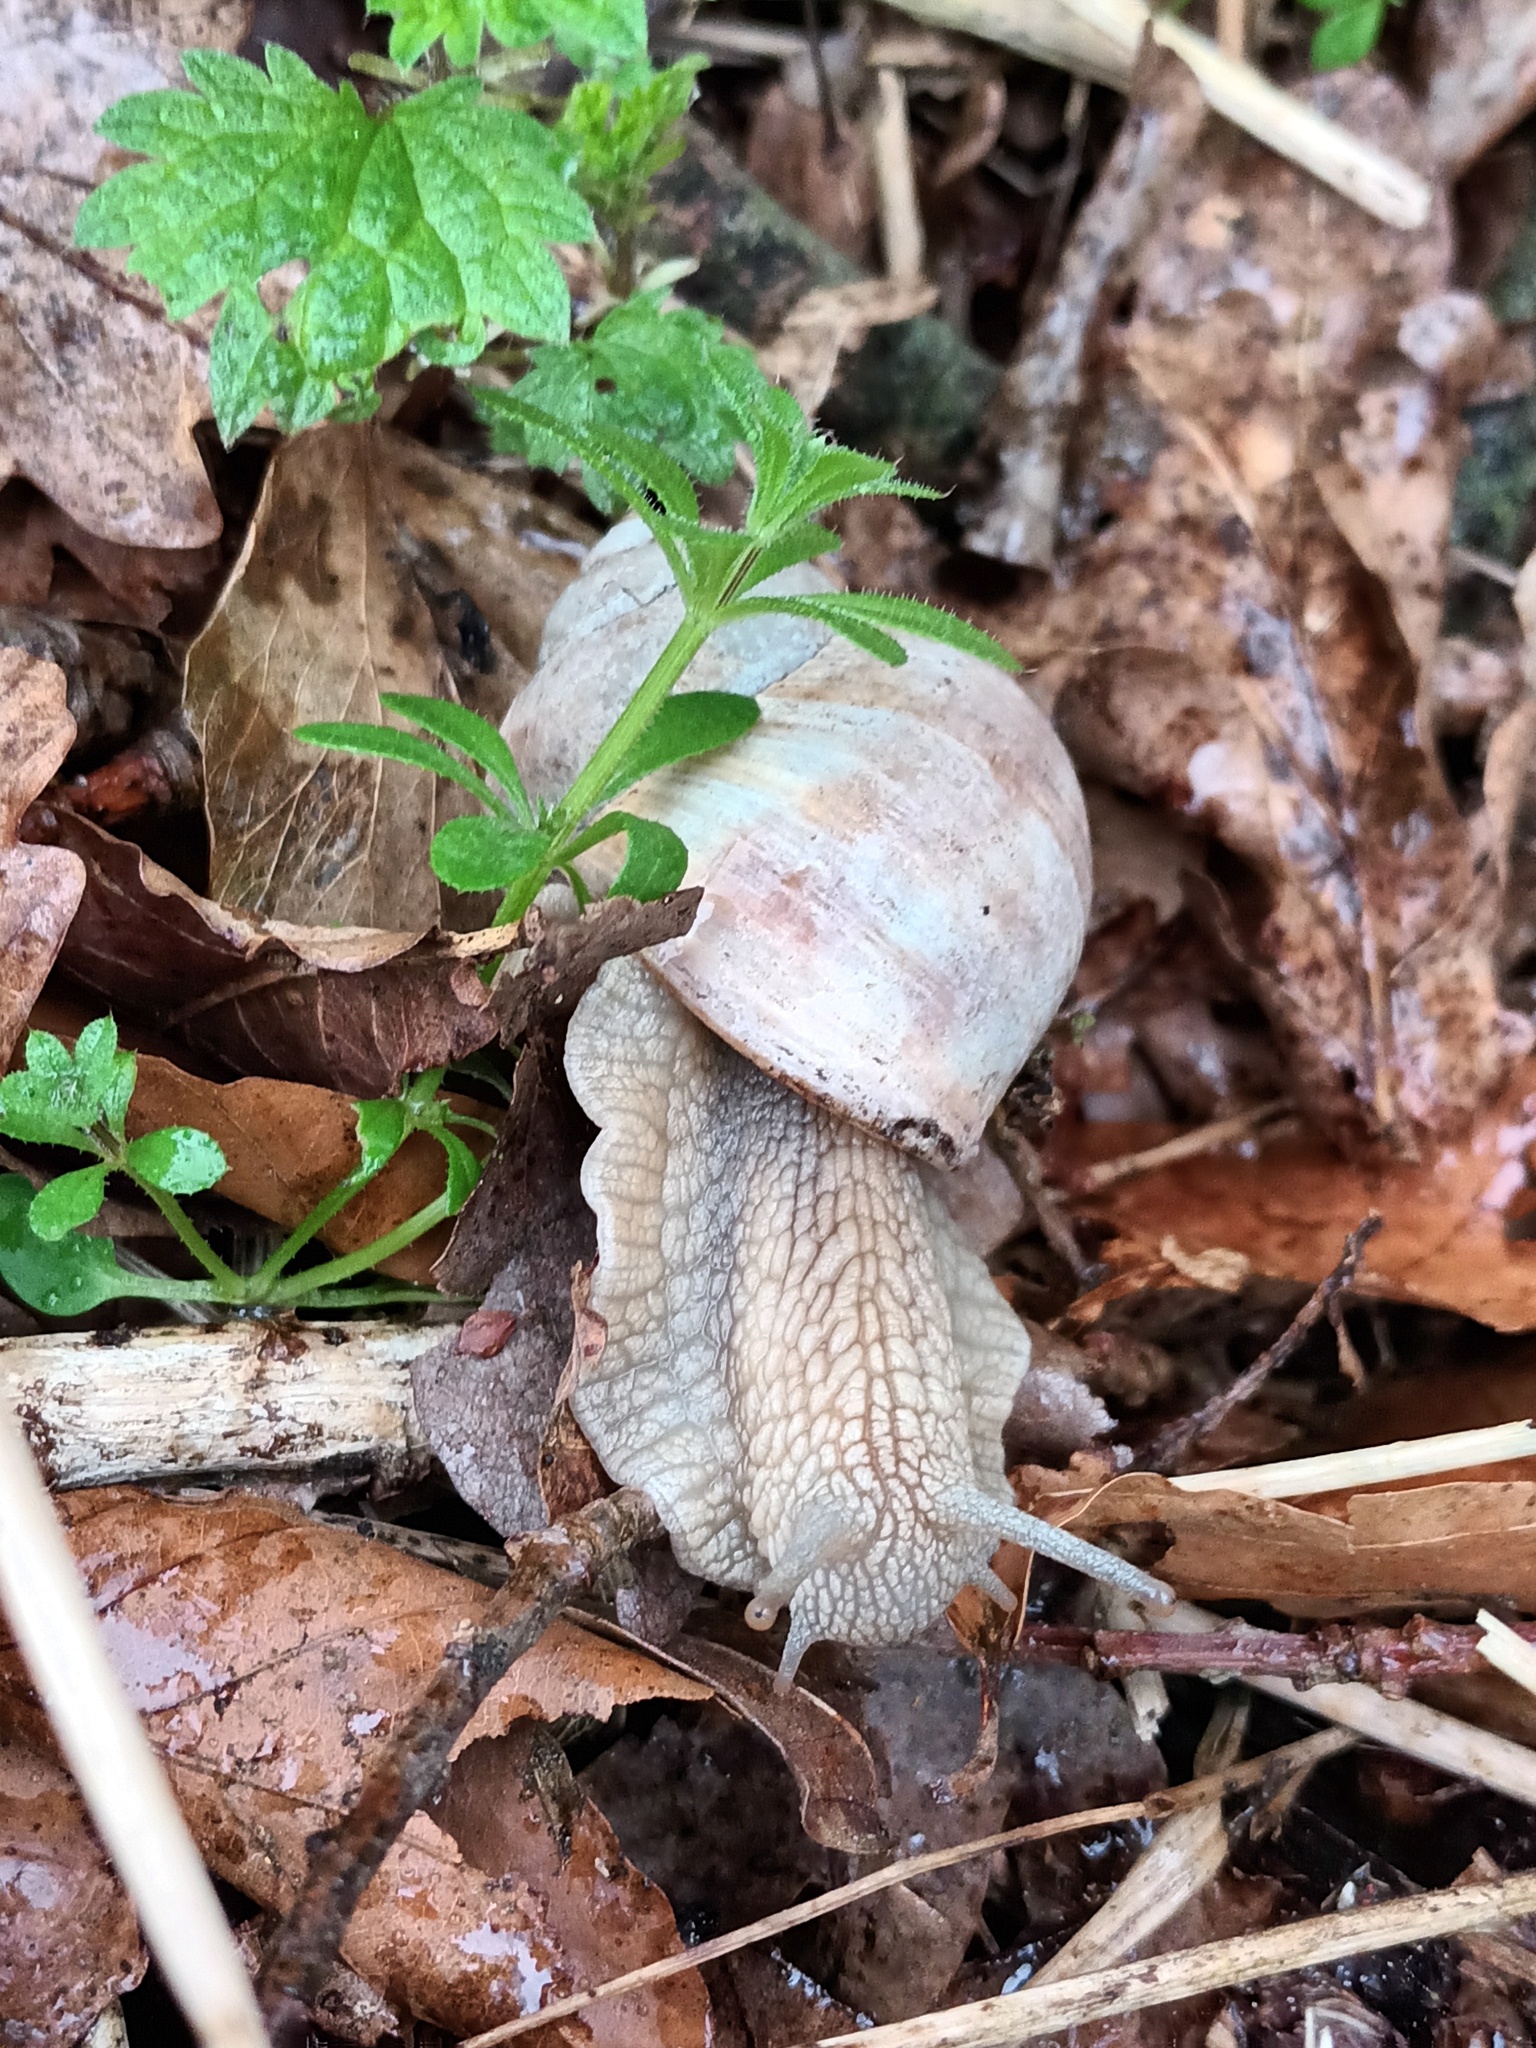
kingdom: Animalia
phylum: Mollusca
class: Gastropoda
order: Stylommatophora
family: Helicidae
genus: Helix
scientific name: Helix pomatia
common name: Roman snail
